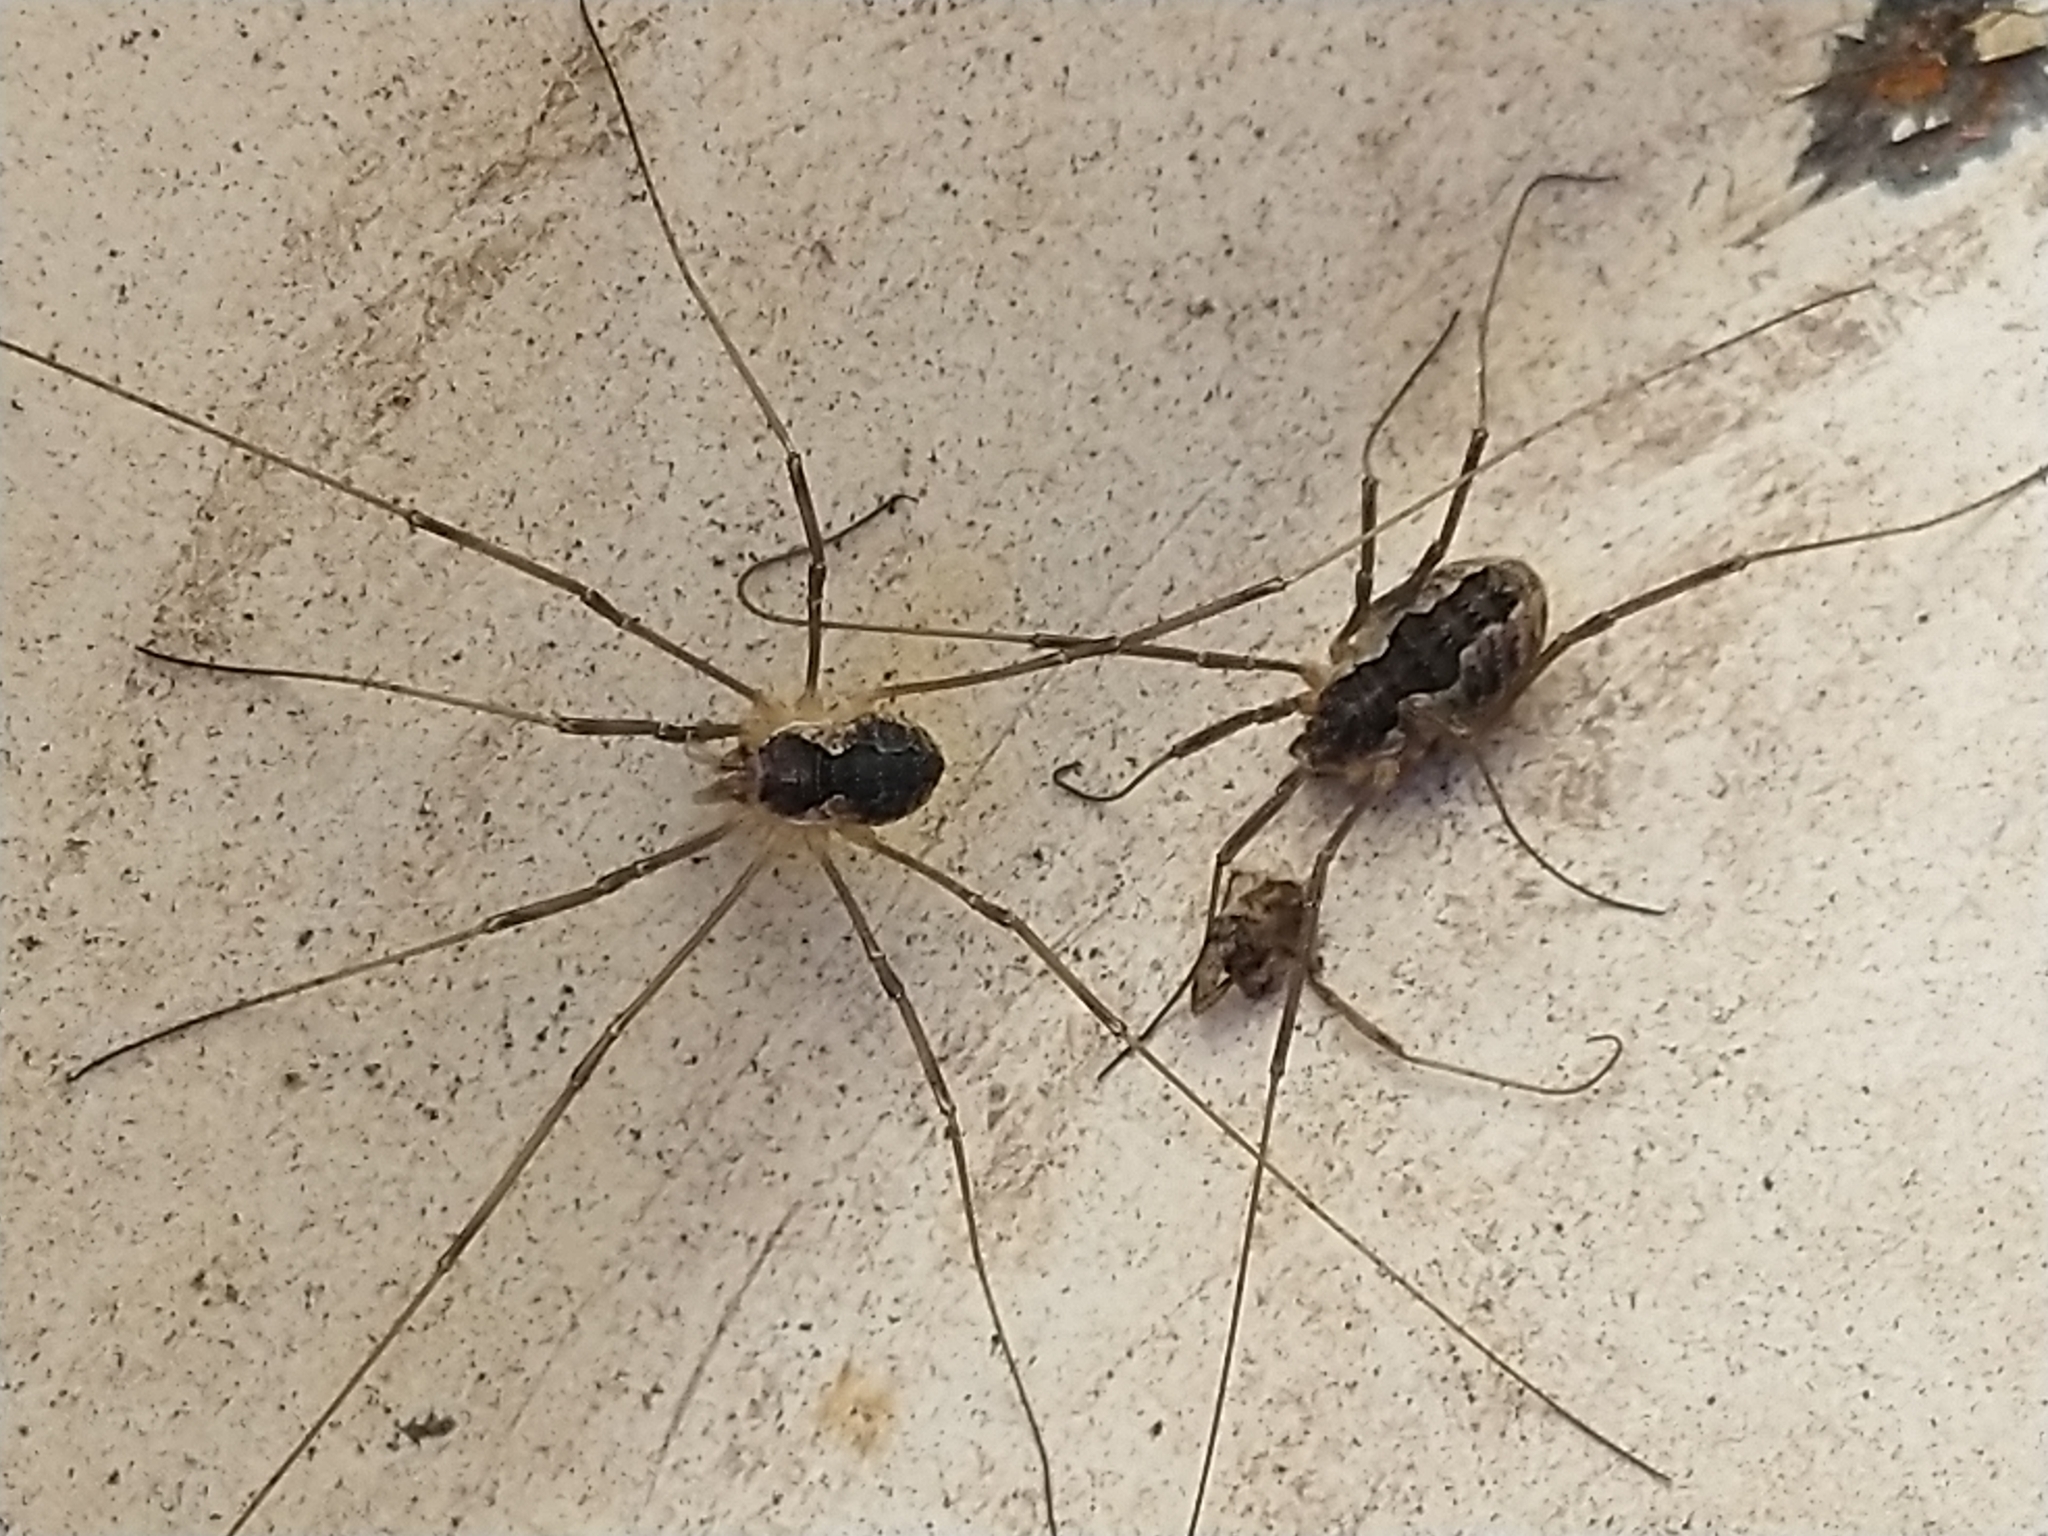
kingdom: Animalia
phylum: Arthropoda
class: Arachnida
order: Opiliones
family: Phalangiidae
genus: Mitopus
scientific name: Mitopus morio
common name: Saddleback harvestman
